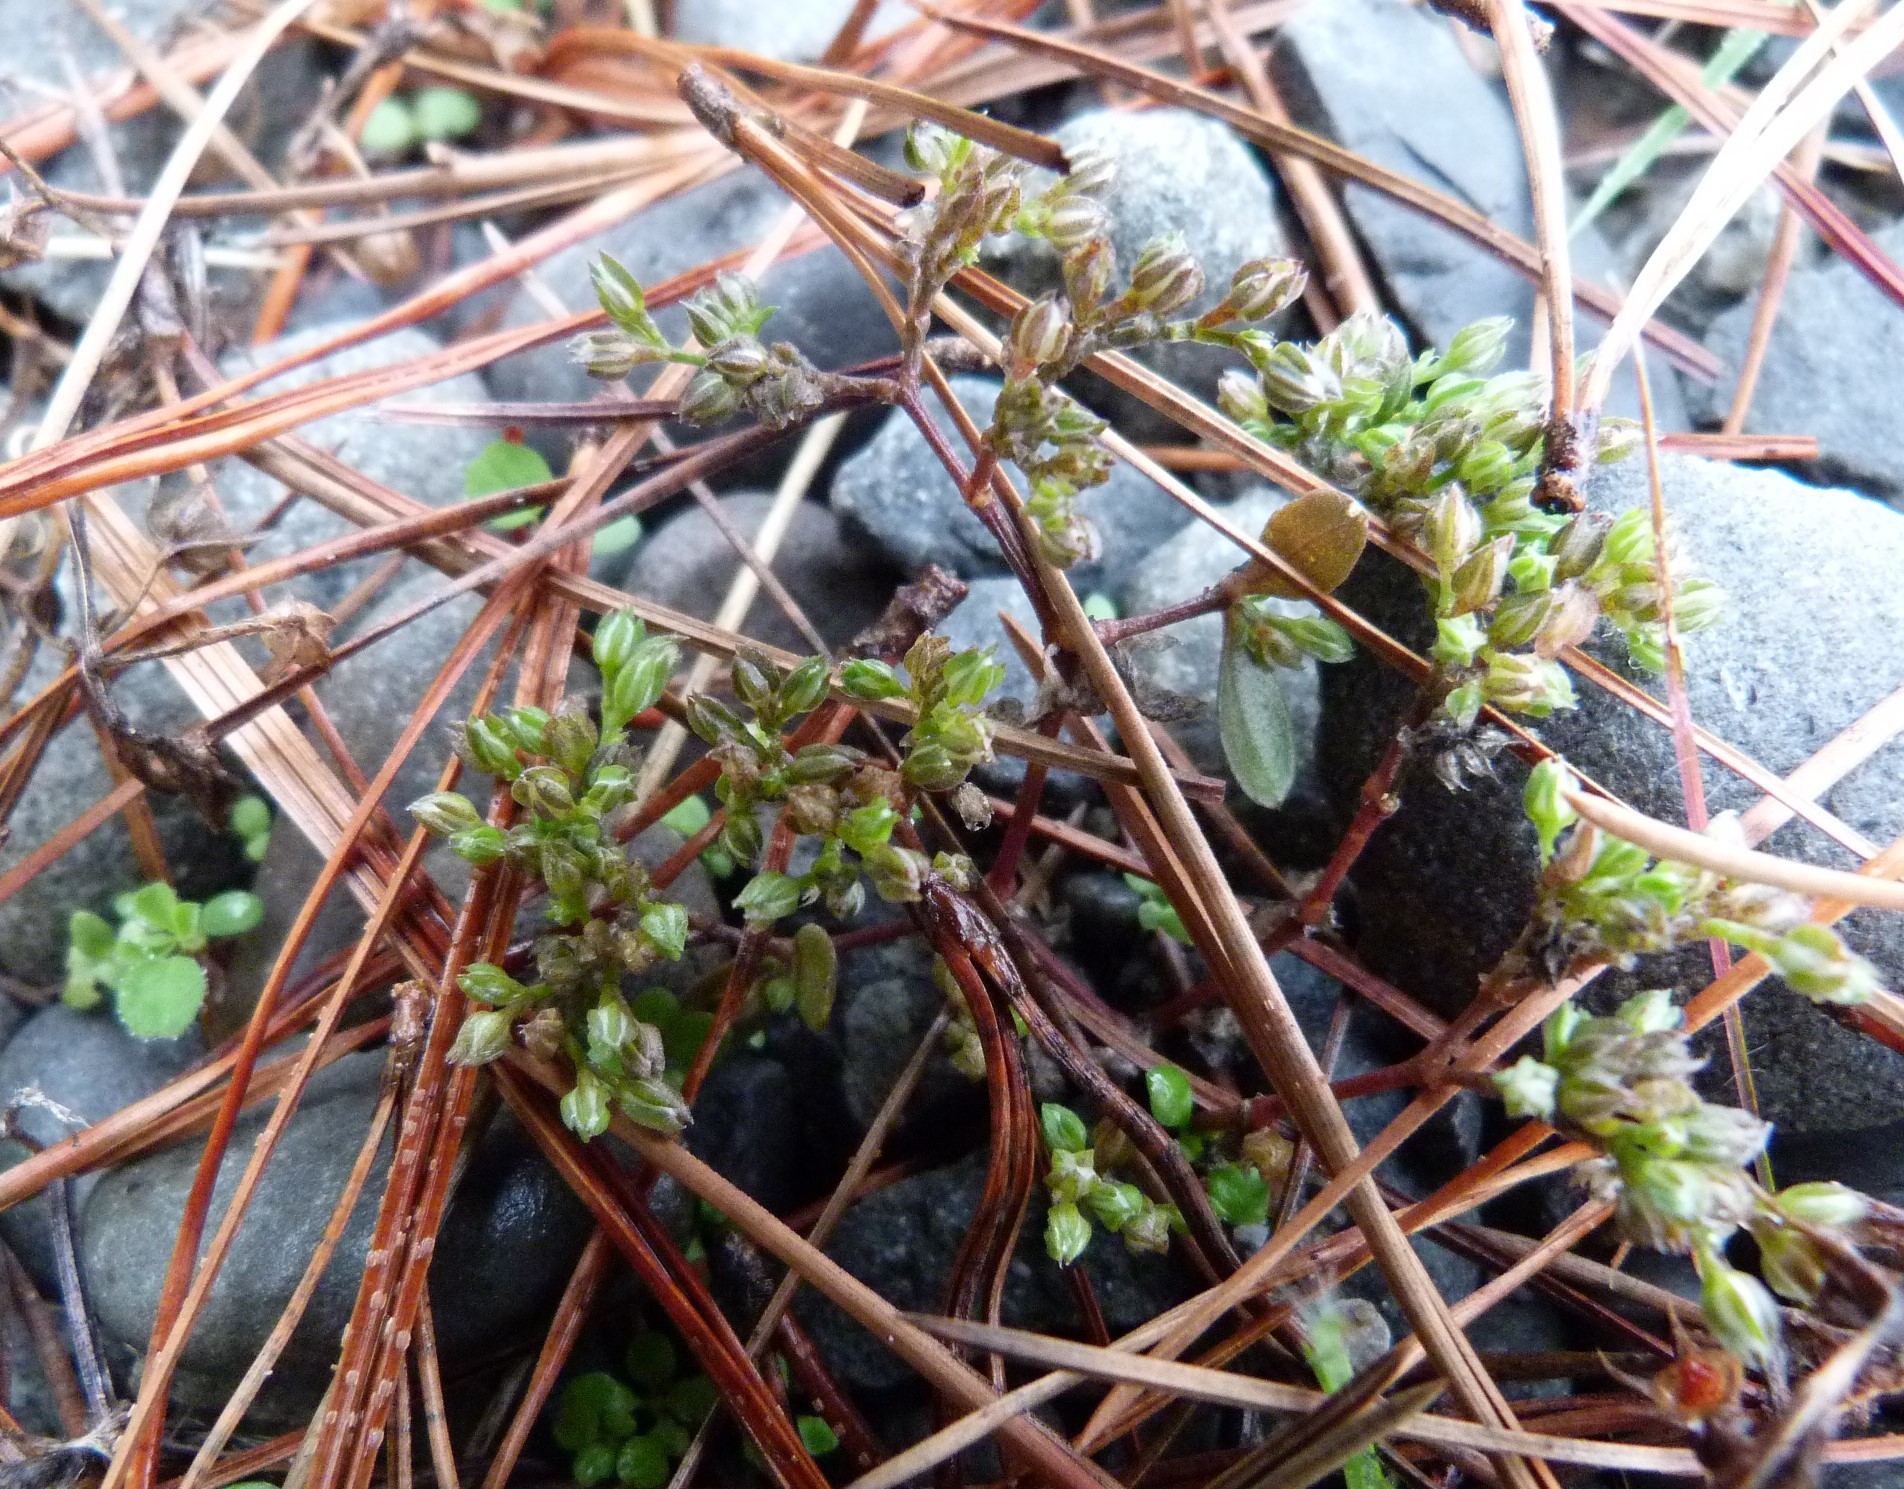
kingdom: Plantae
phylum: Tracheophyta
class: Magnoliopsida
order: Caryophyllales
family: Caryophyllaceae
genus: Polycarpon
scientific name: Polycarpon tetraphyllum
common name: Four-leaved all-seed
